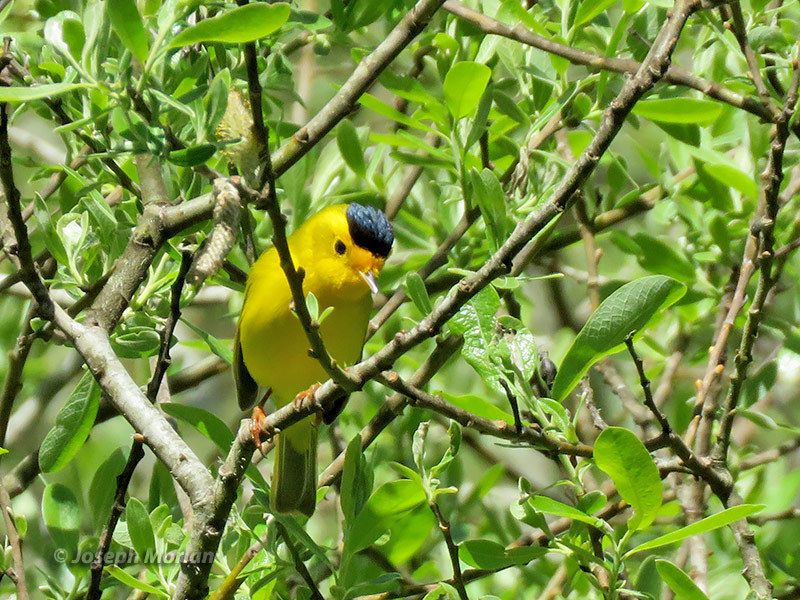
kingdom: Animalia
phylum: Chordata
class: Aves
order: Passeriformes
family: Parulidae
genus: Cardellina
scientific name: Cardellina pusilla
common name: Wilson's warbler
